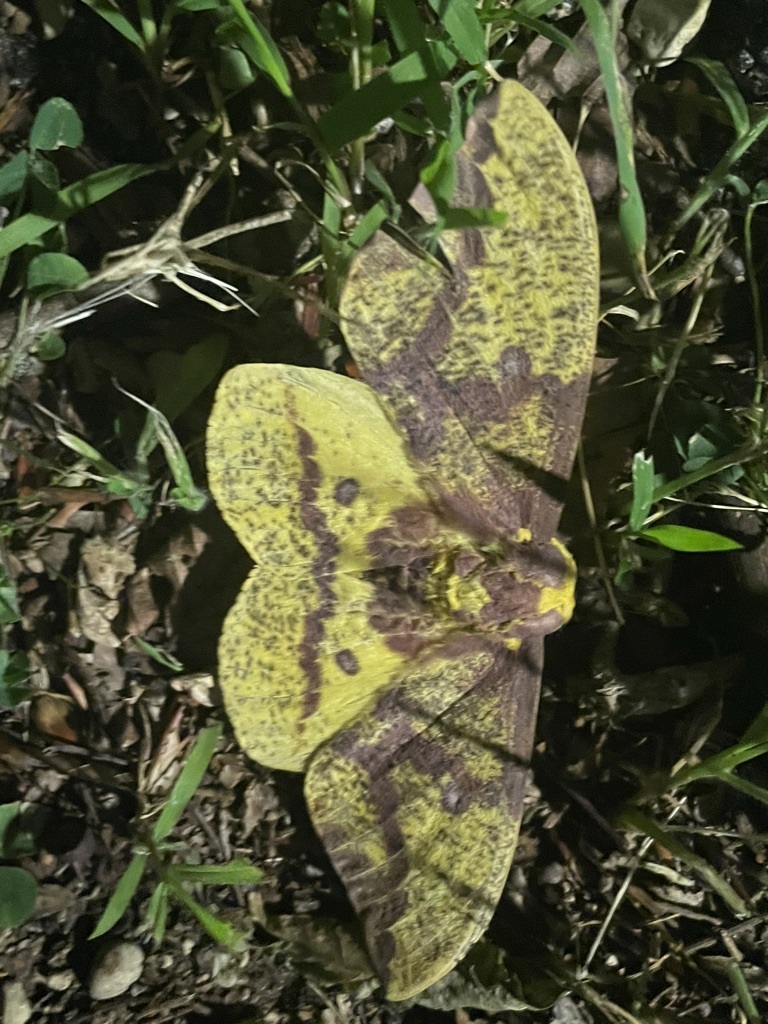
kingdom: Animalia
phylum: Arthropoda
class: Insecta
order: Lepidoptera
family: Saturniidae
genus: Eacles
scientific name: Eacles imperialis
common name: Imperial moth
